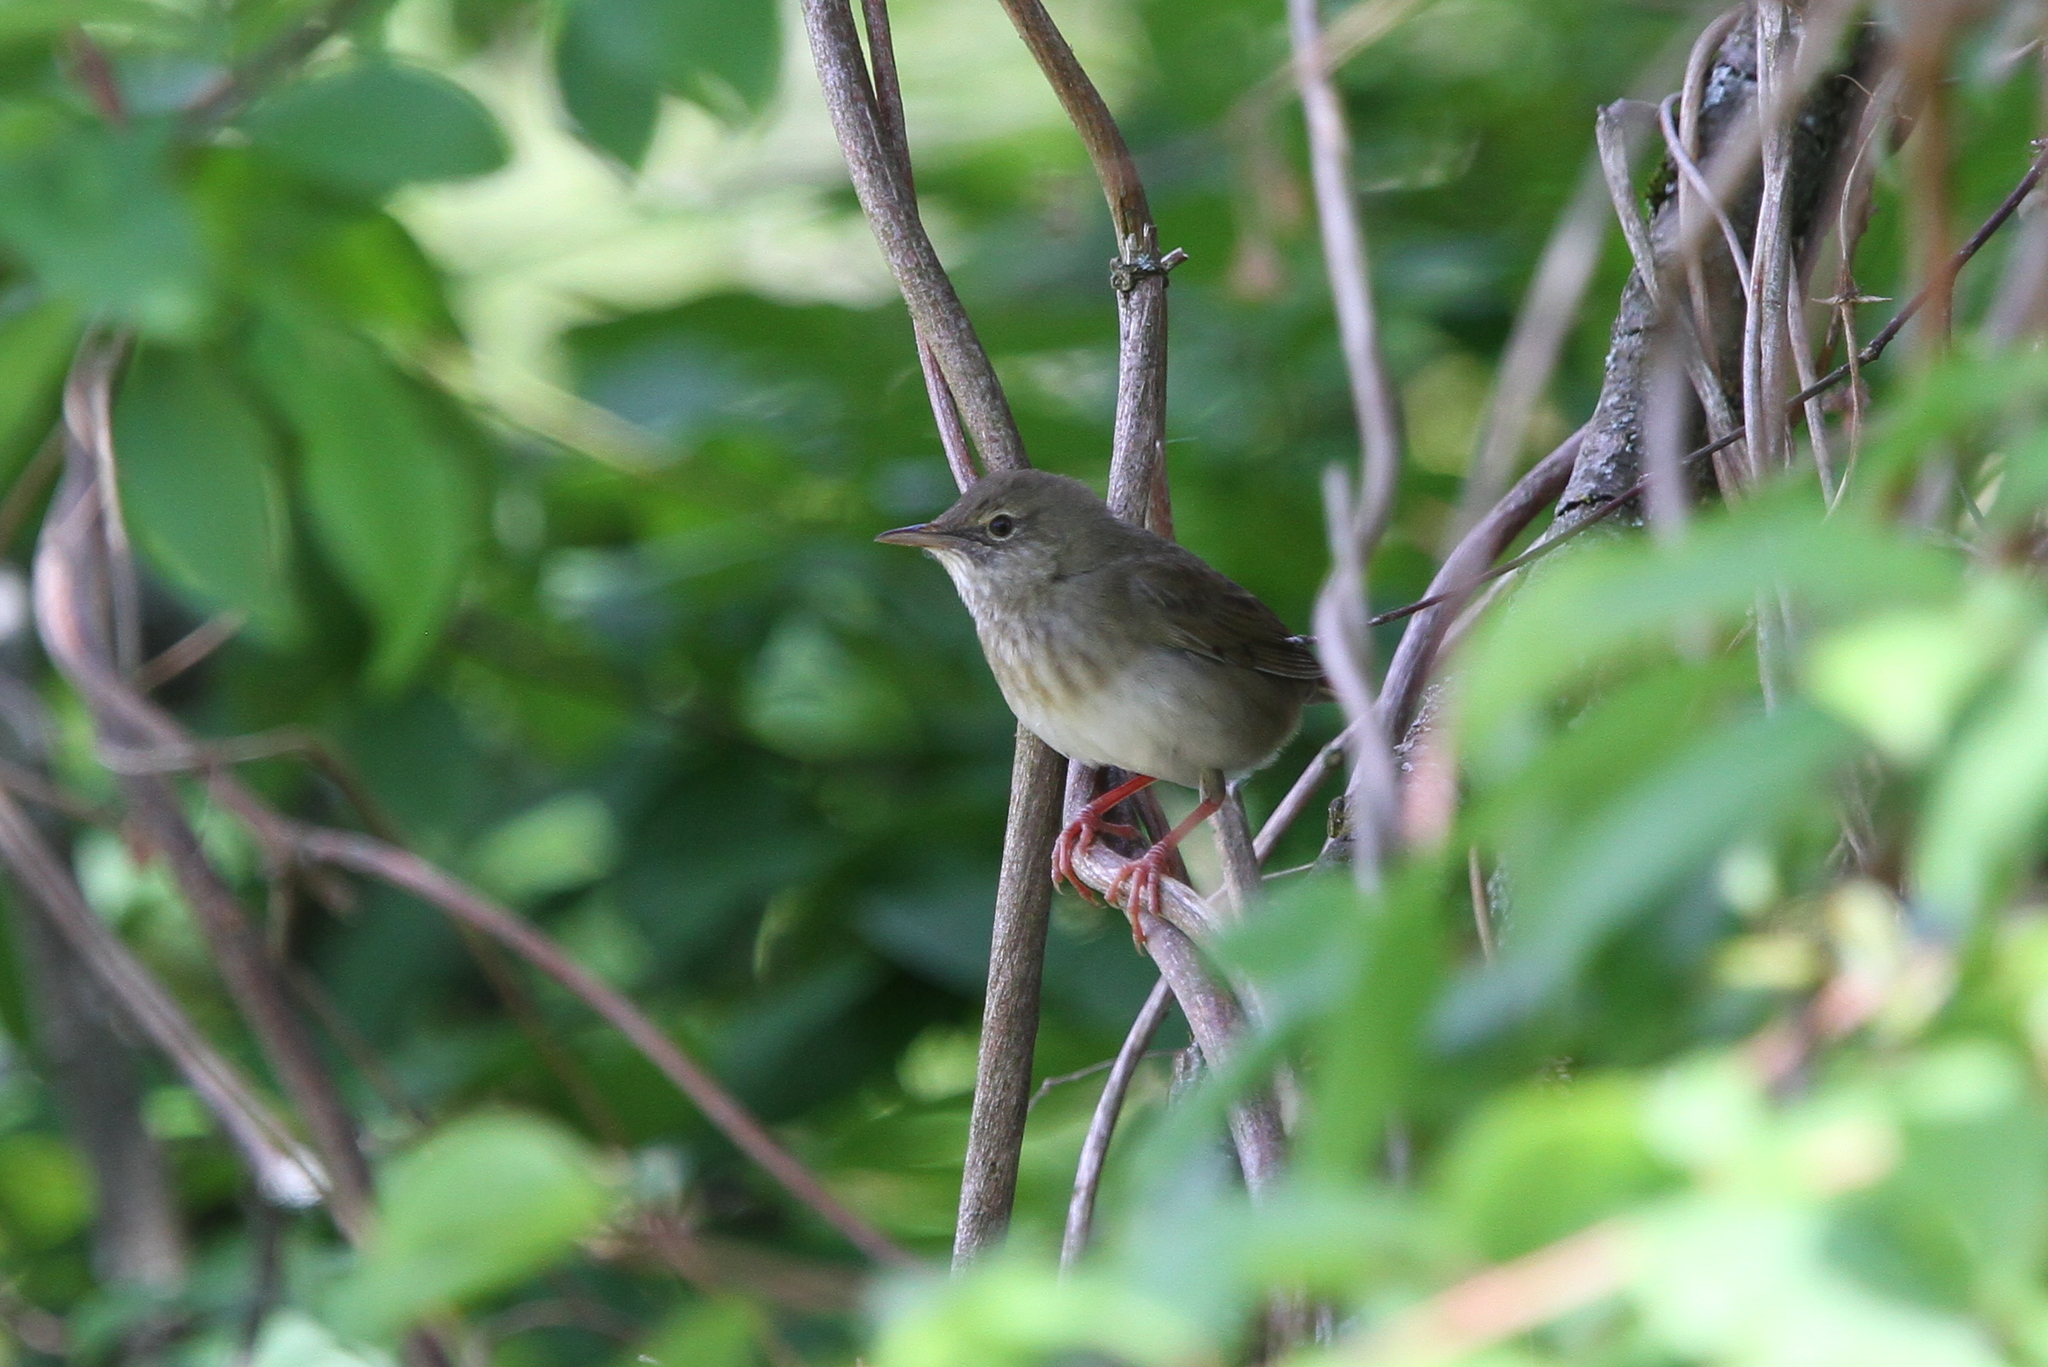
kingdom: Animalia
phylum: Chordata
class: Aves
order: Passeriformes
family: Locustellidae
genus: Locustella
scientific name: Locustella fluviatilis
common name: River warbler
